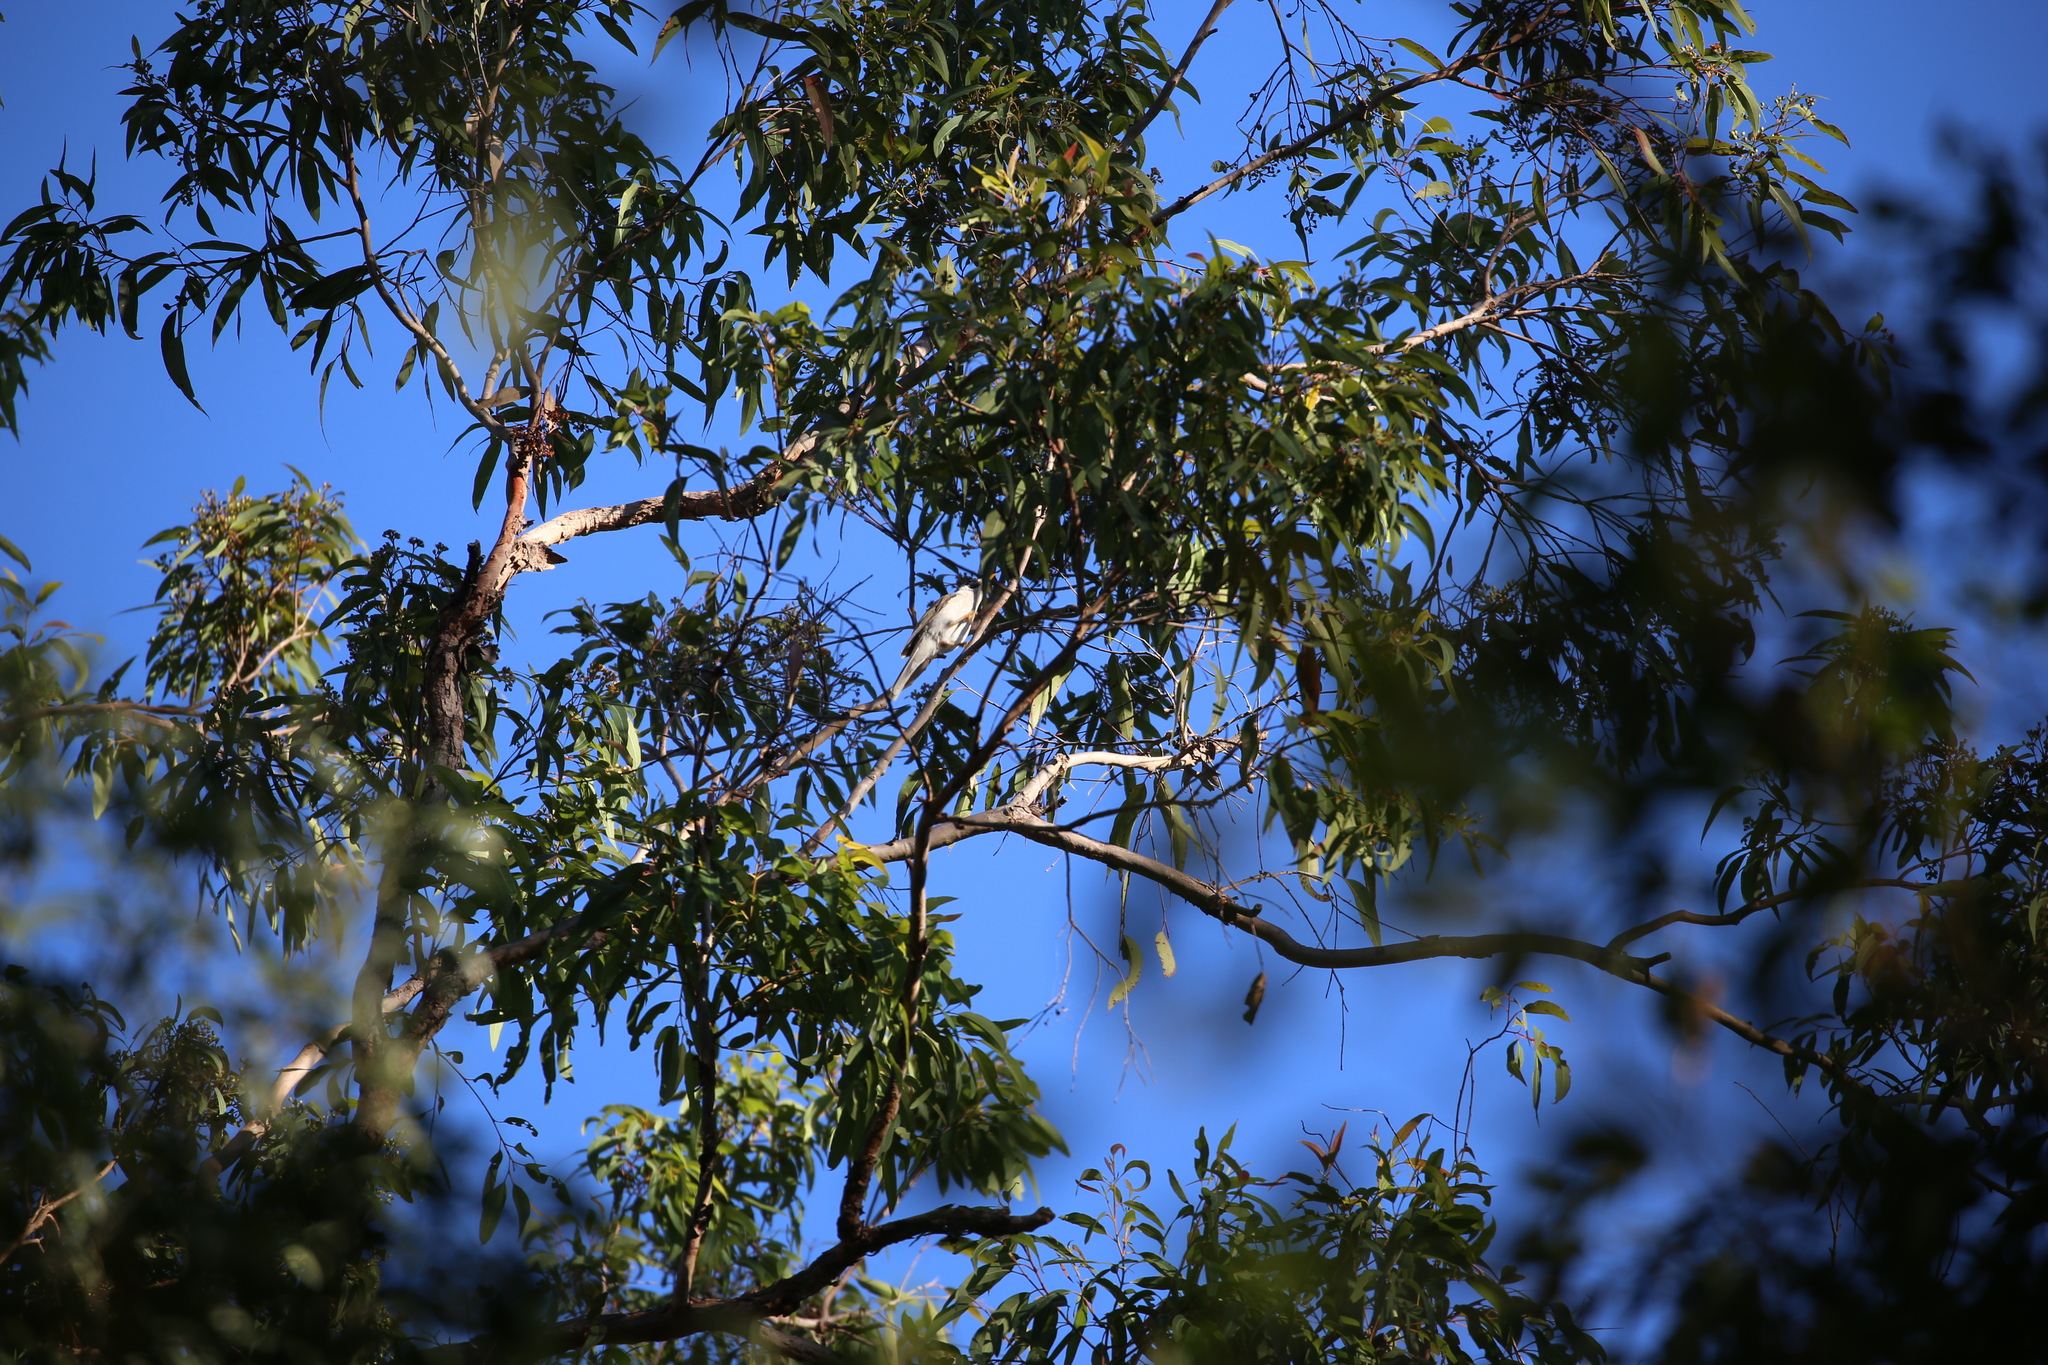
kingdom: Animalia
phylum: Chordata
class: Aves
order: Passeriformes
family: Meliphagidae
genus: Manorina
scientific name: Manorina melanocephala
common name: Noisy miner
